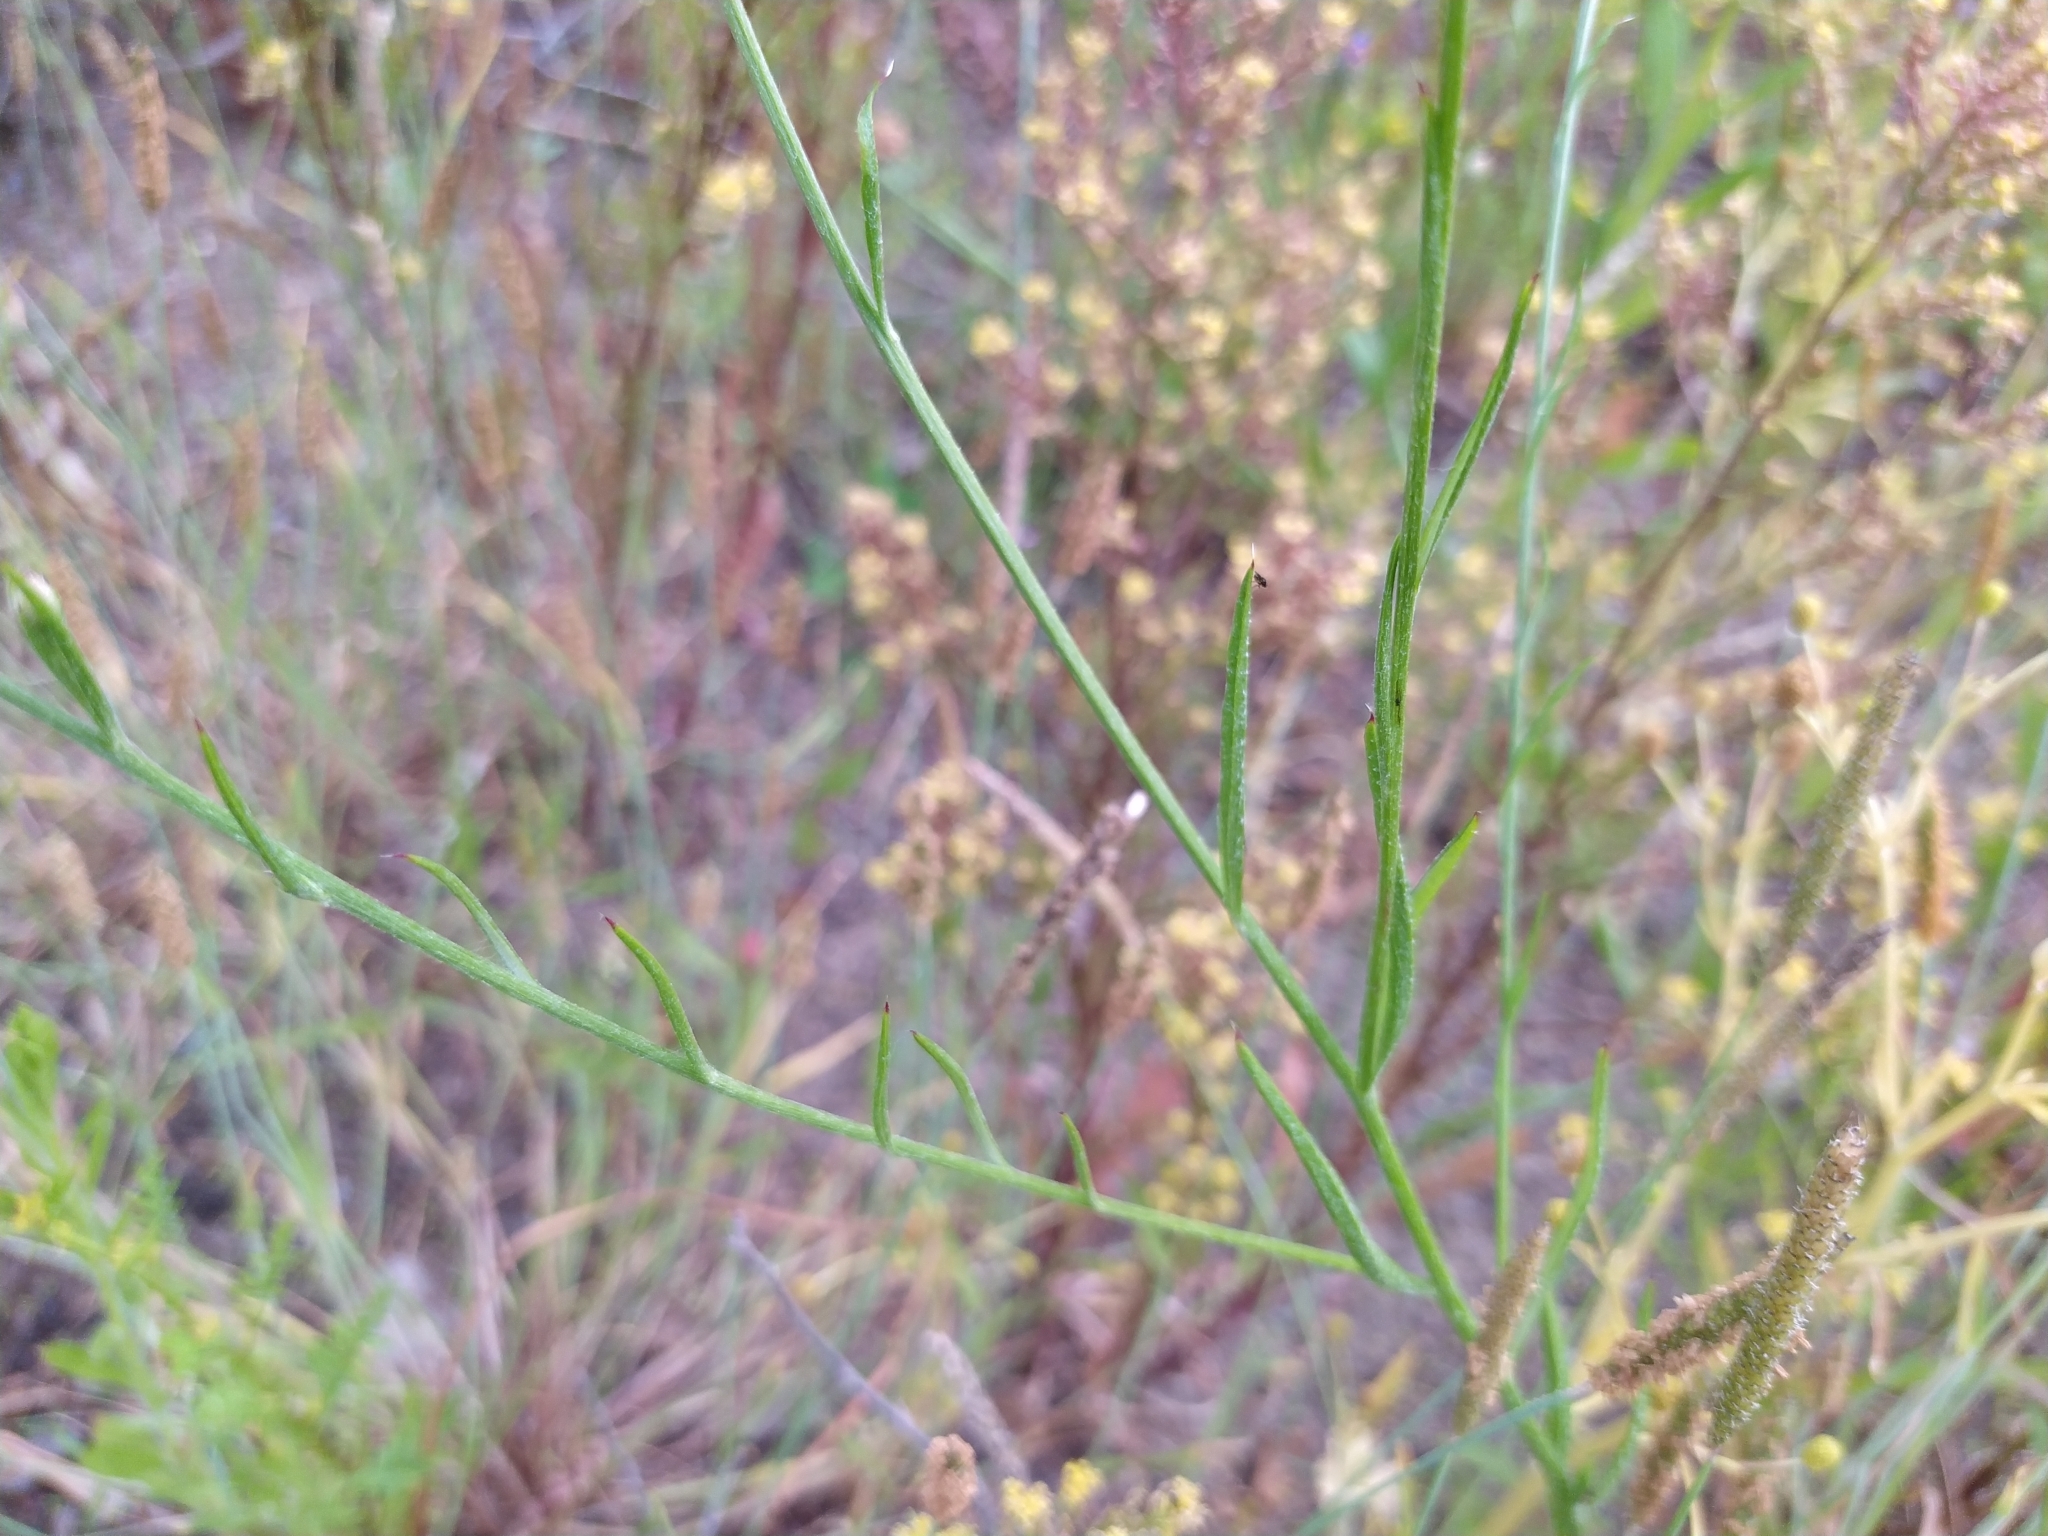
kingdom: Plantae
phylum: Tracheophyta
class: Magnoliopsida
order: Asterales
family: Asteraceae
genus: Centaurea
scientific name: Centaurea cyanus
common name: Cornflower
